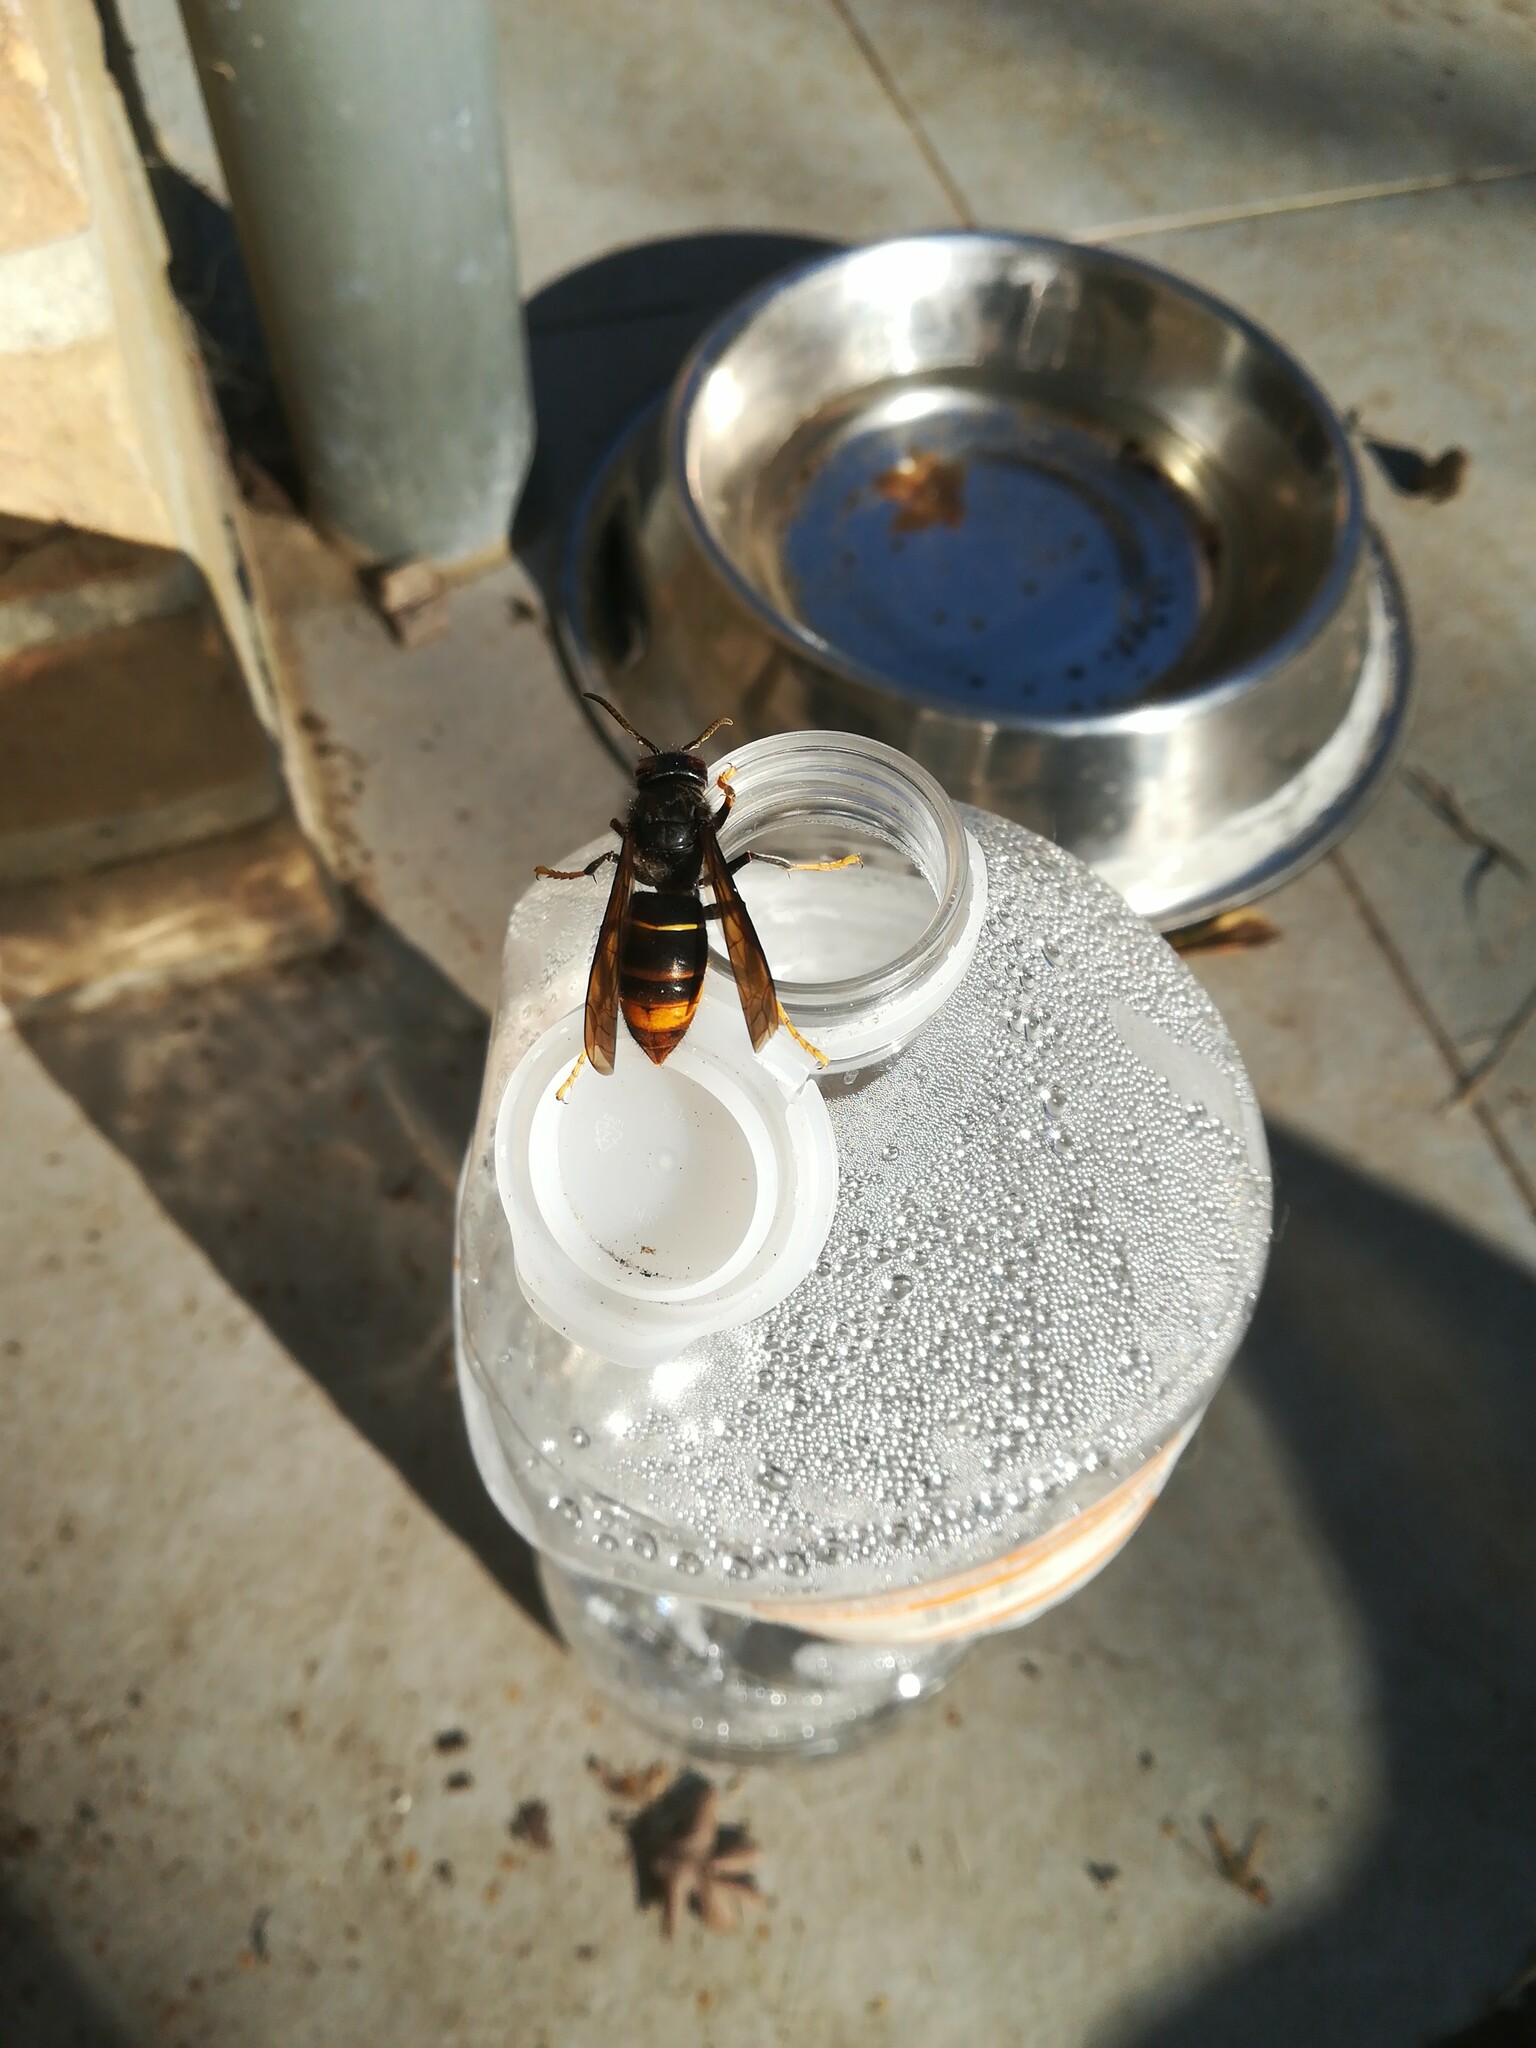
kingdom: Animalia
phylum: Arthropoda
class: Insecta
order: Hymenoptera
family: Vespidae
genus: Vespa
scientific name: Vespa velutina
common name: Asian hornet
